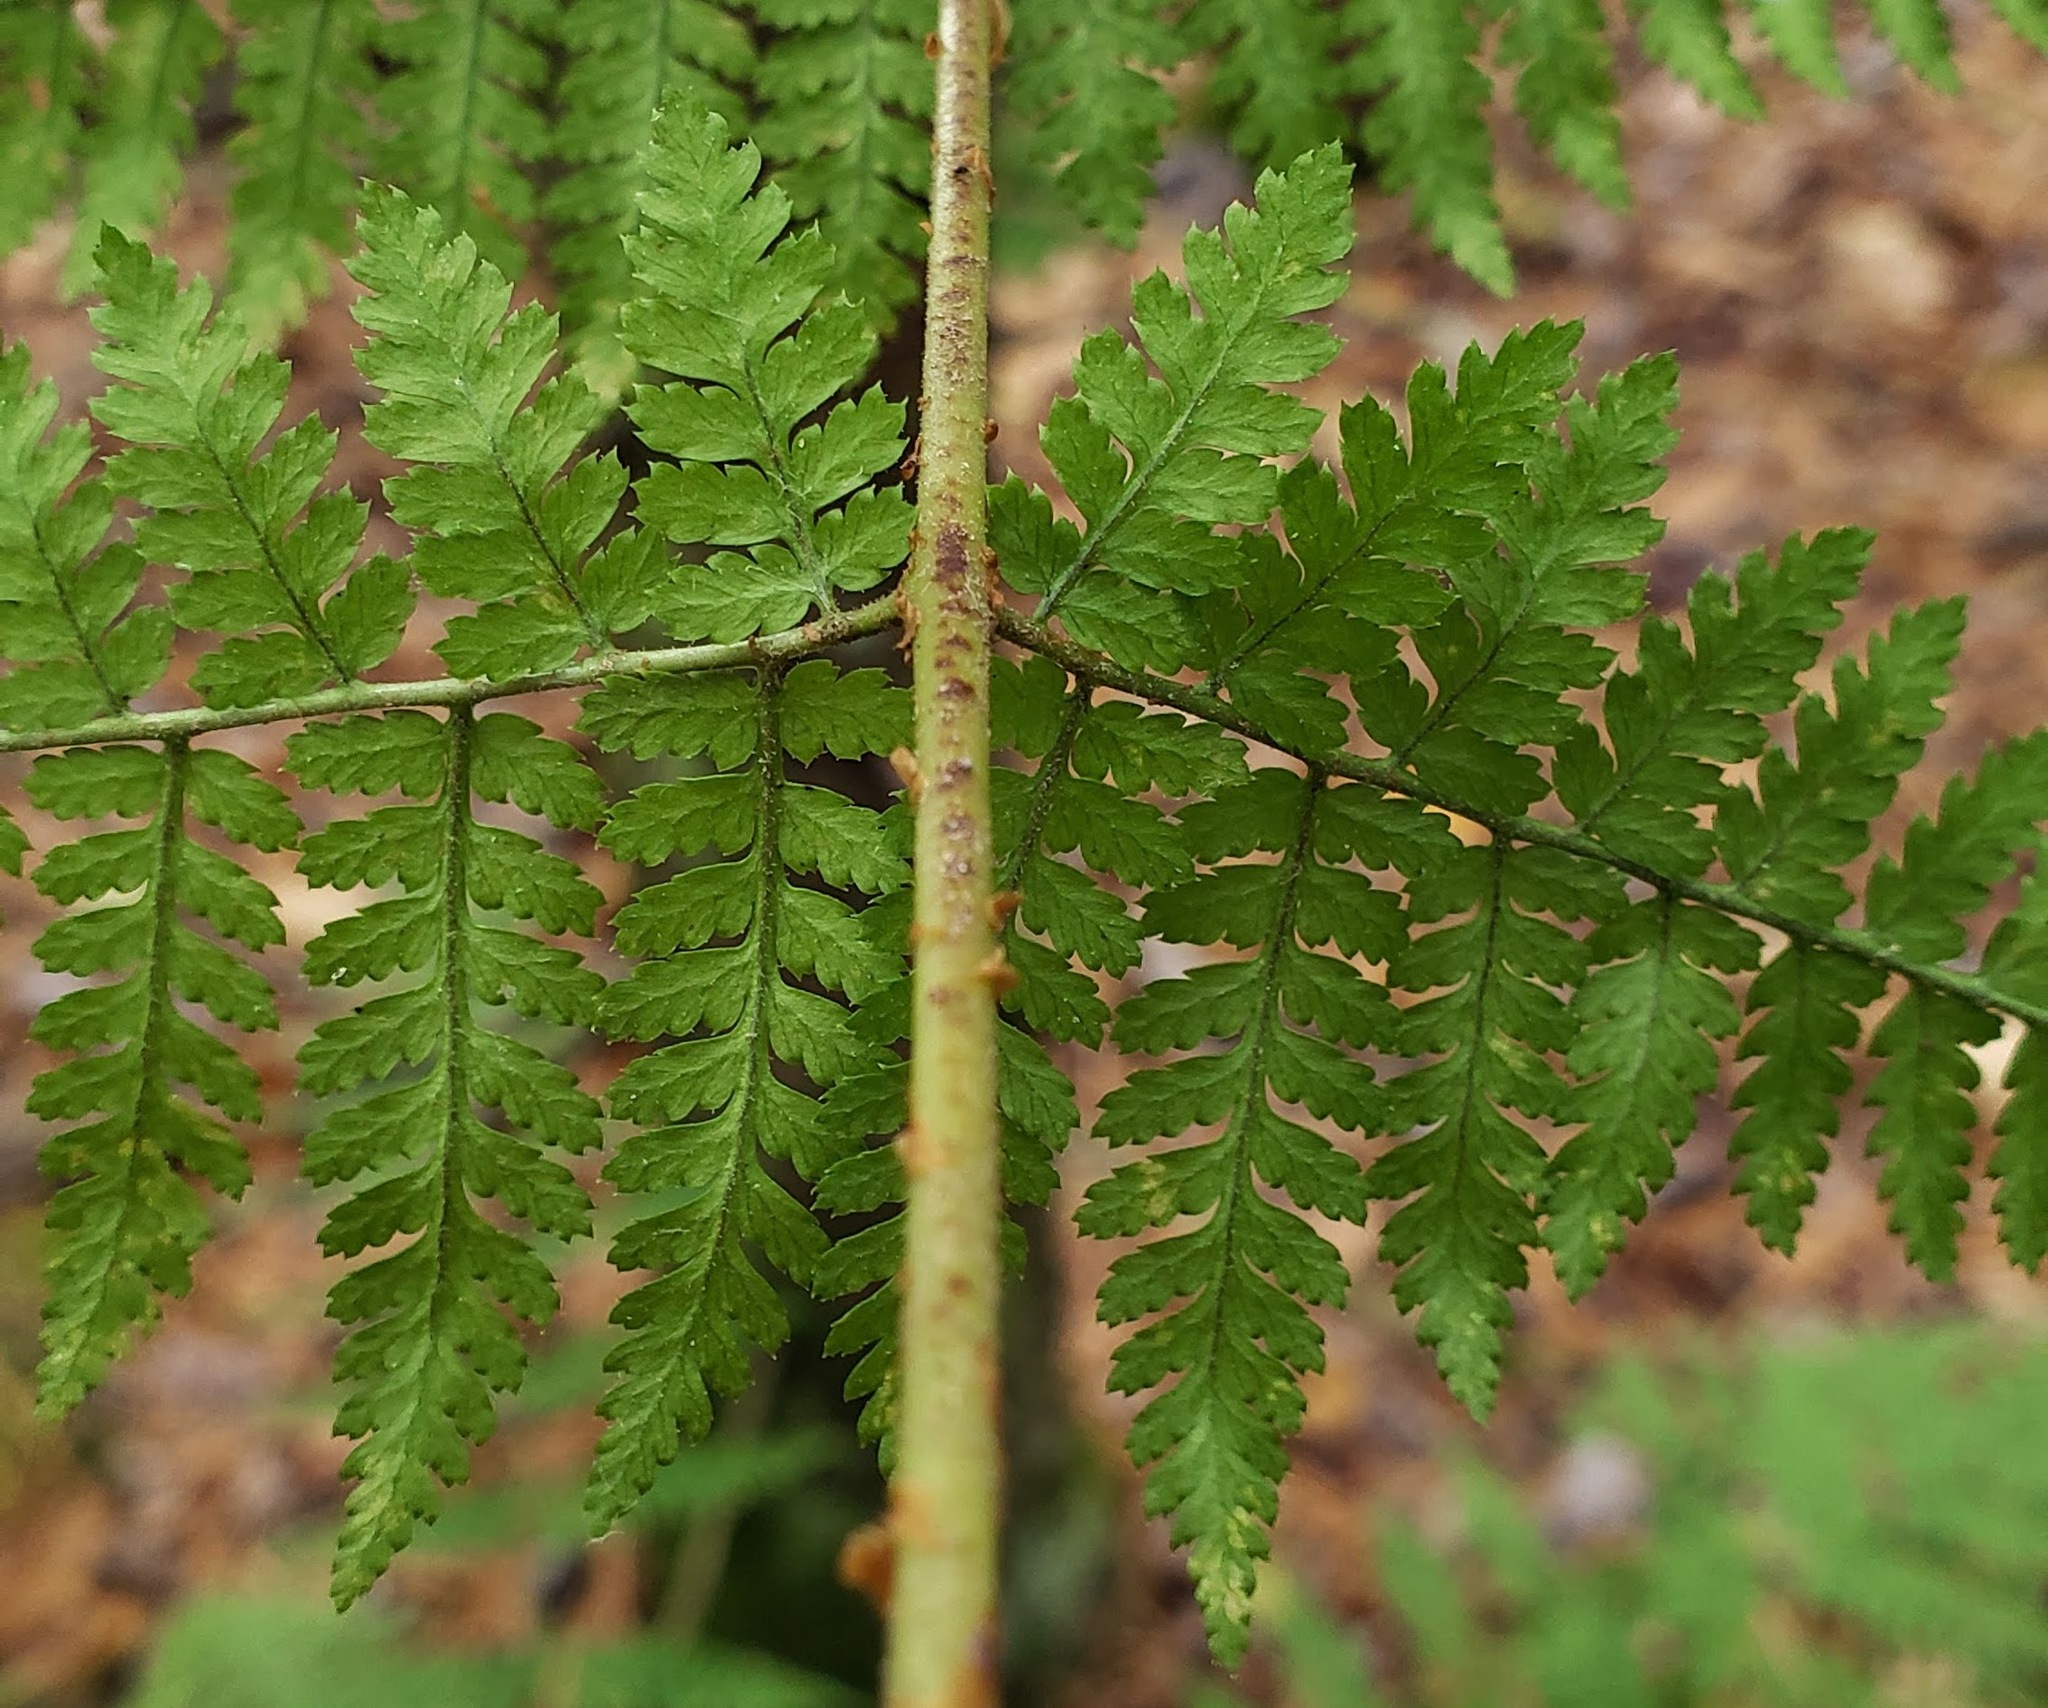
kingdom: Plantae
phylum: Tracheophyta
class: Polypodiopsida
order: Polypodiales
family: Dryopteridaceae
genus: Dryopteris
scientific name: Dryopteris intermedia
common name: Evergreen wood fern
